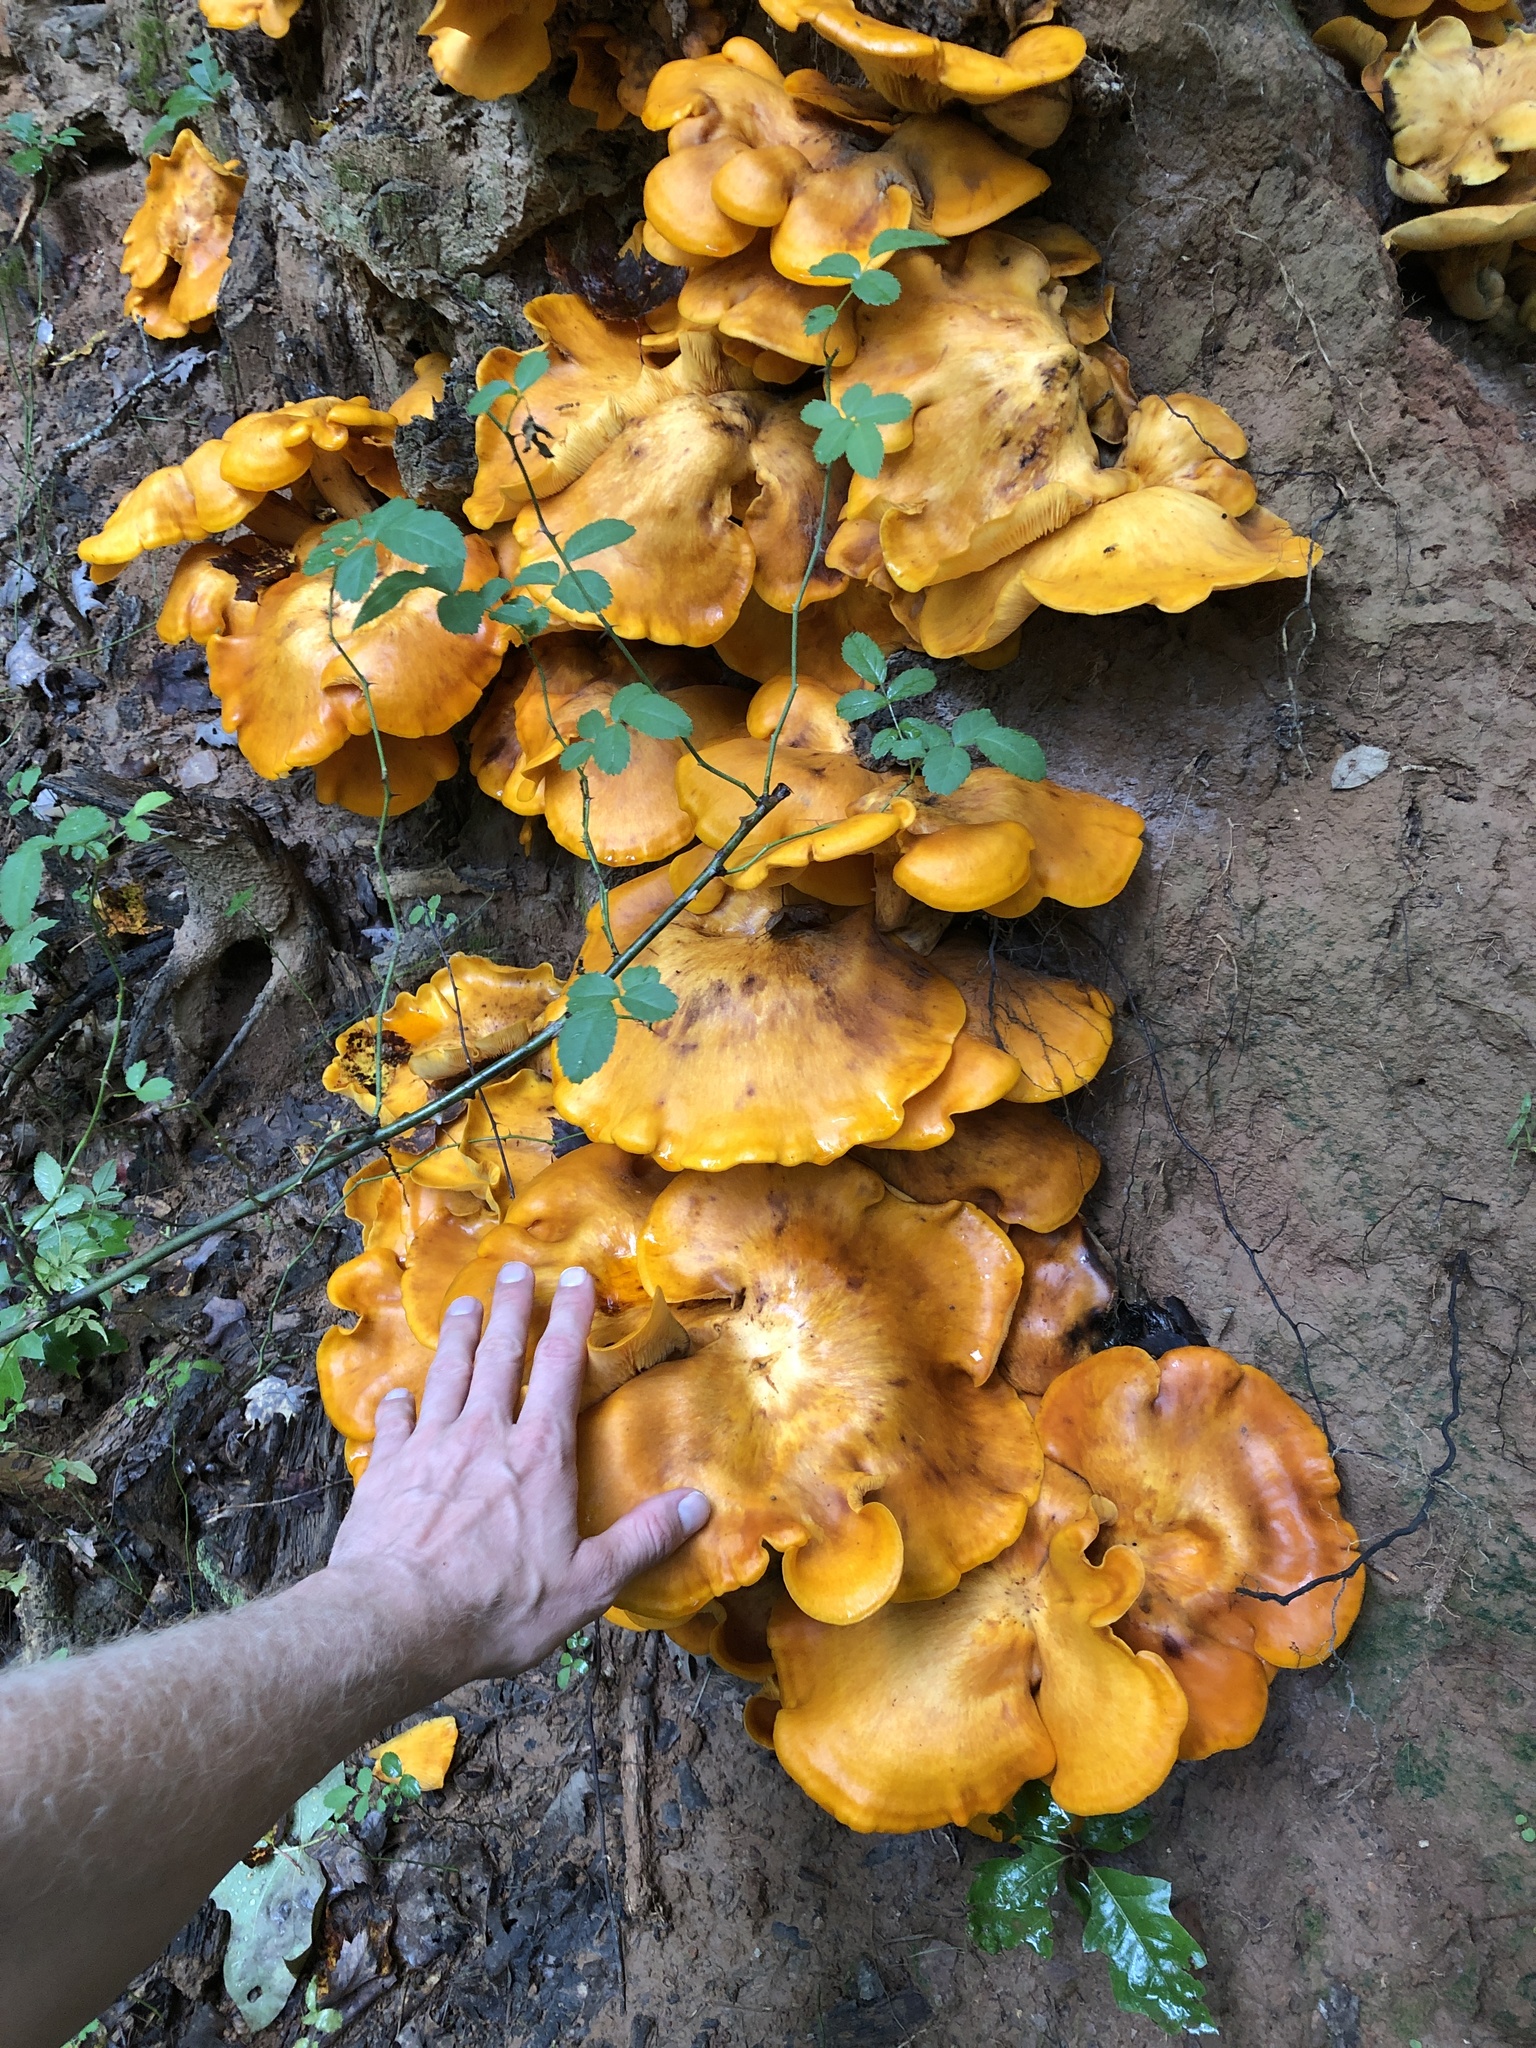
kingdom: Fungi
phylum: Basidiomycota
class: Agaricomycetes
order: Agaricales
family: Omphalotaceae
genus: Omphalotus
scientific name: Omphalotus illudens
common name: Jack o lantern
